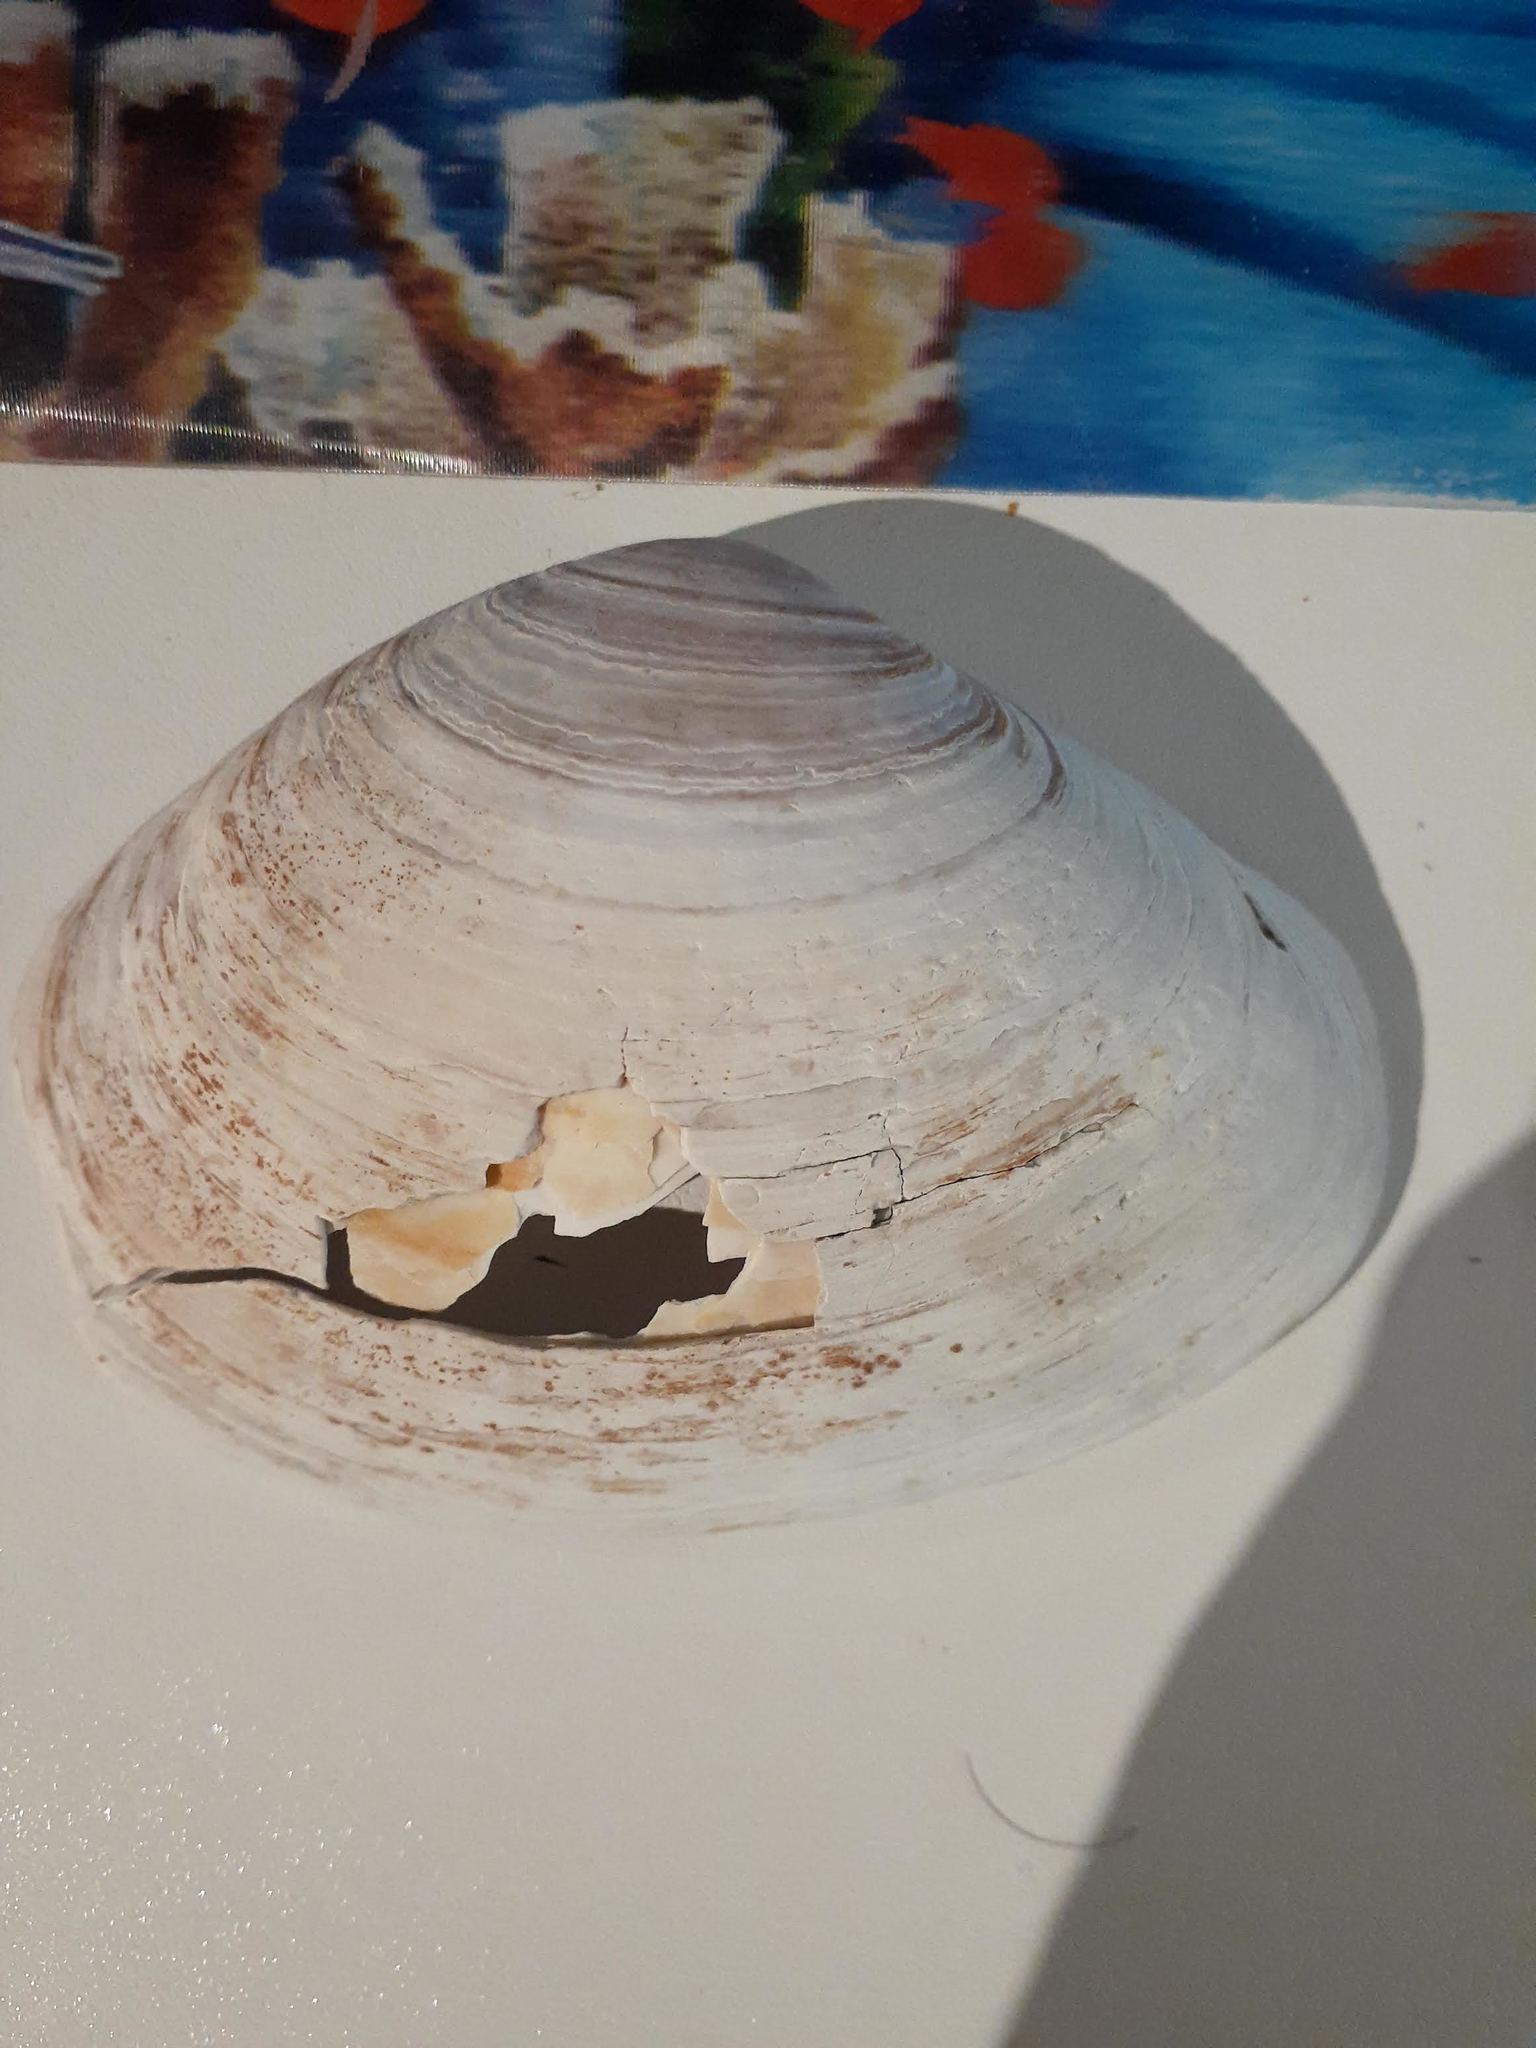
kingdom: Animalia
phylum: Mollusca
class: Bivalvia
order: Venerida
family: Mactridae
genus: Mactromeris
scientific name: Mactromeris polynyma
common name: Arctic surf clam
